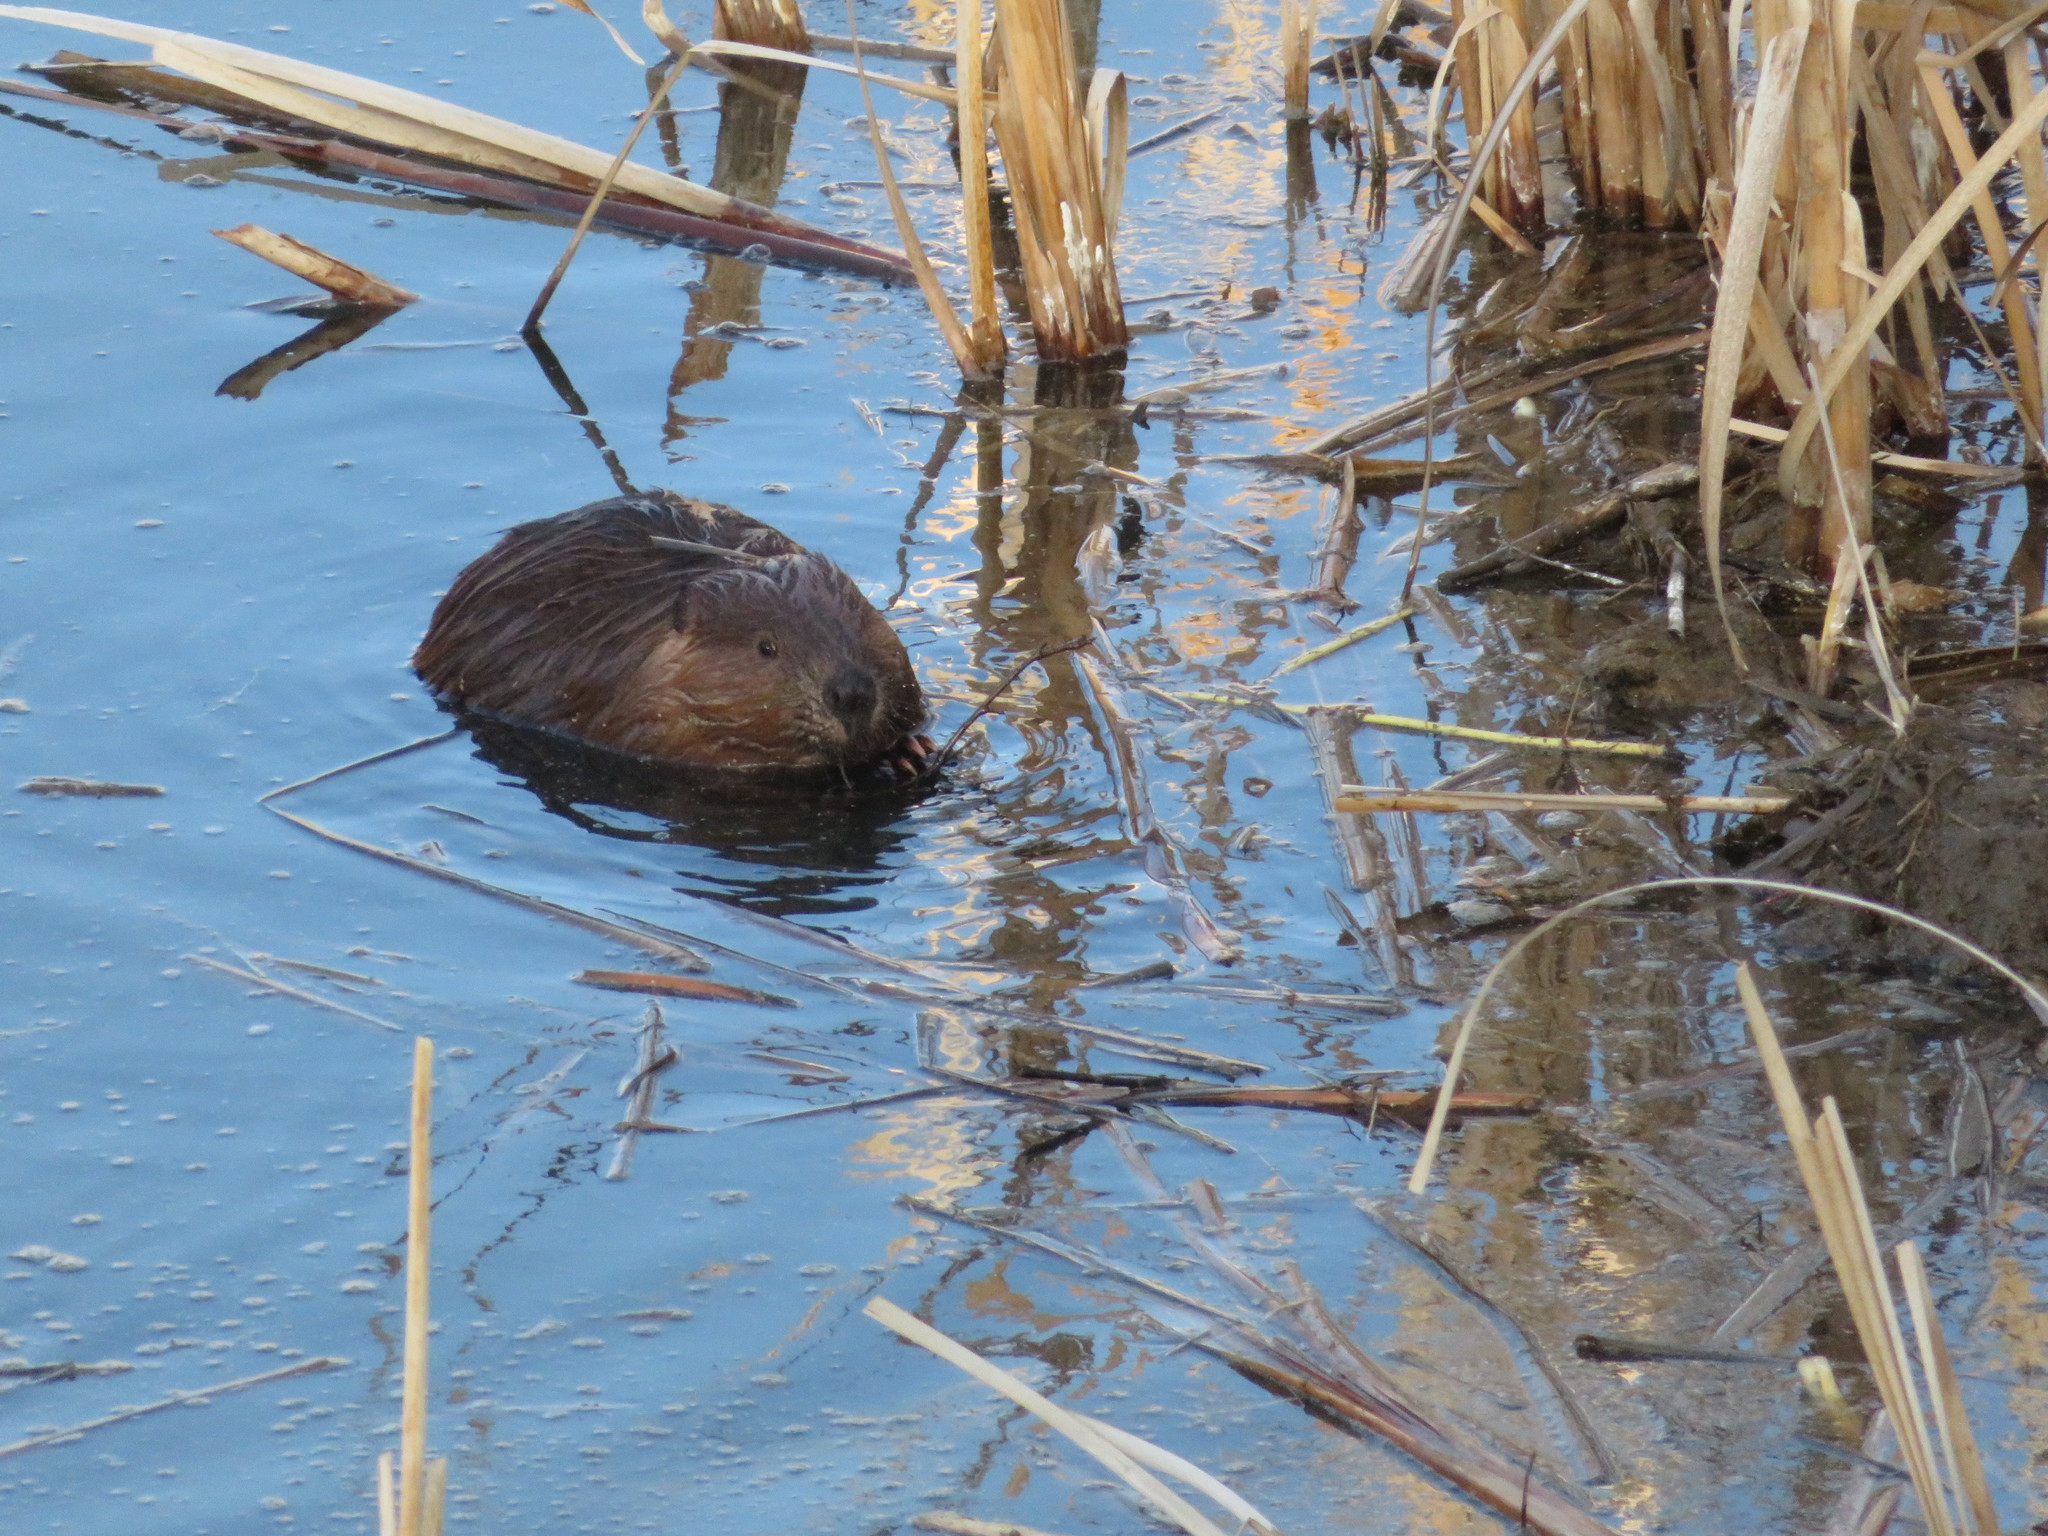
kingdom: Animalia
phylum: Chordata
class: Mammalia
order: Rodentia
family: Castoridae
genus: Castor
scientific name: Castor canadensis
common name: American beaver
